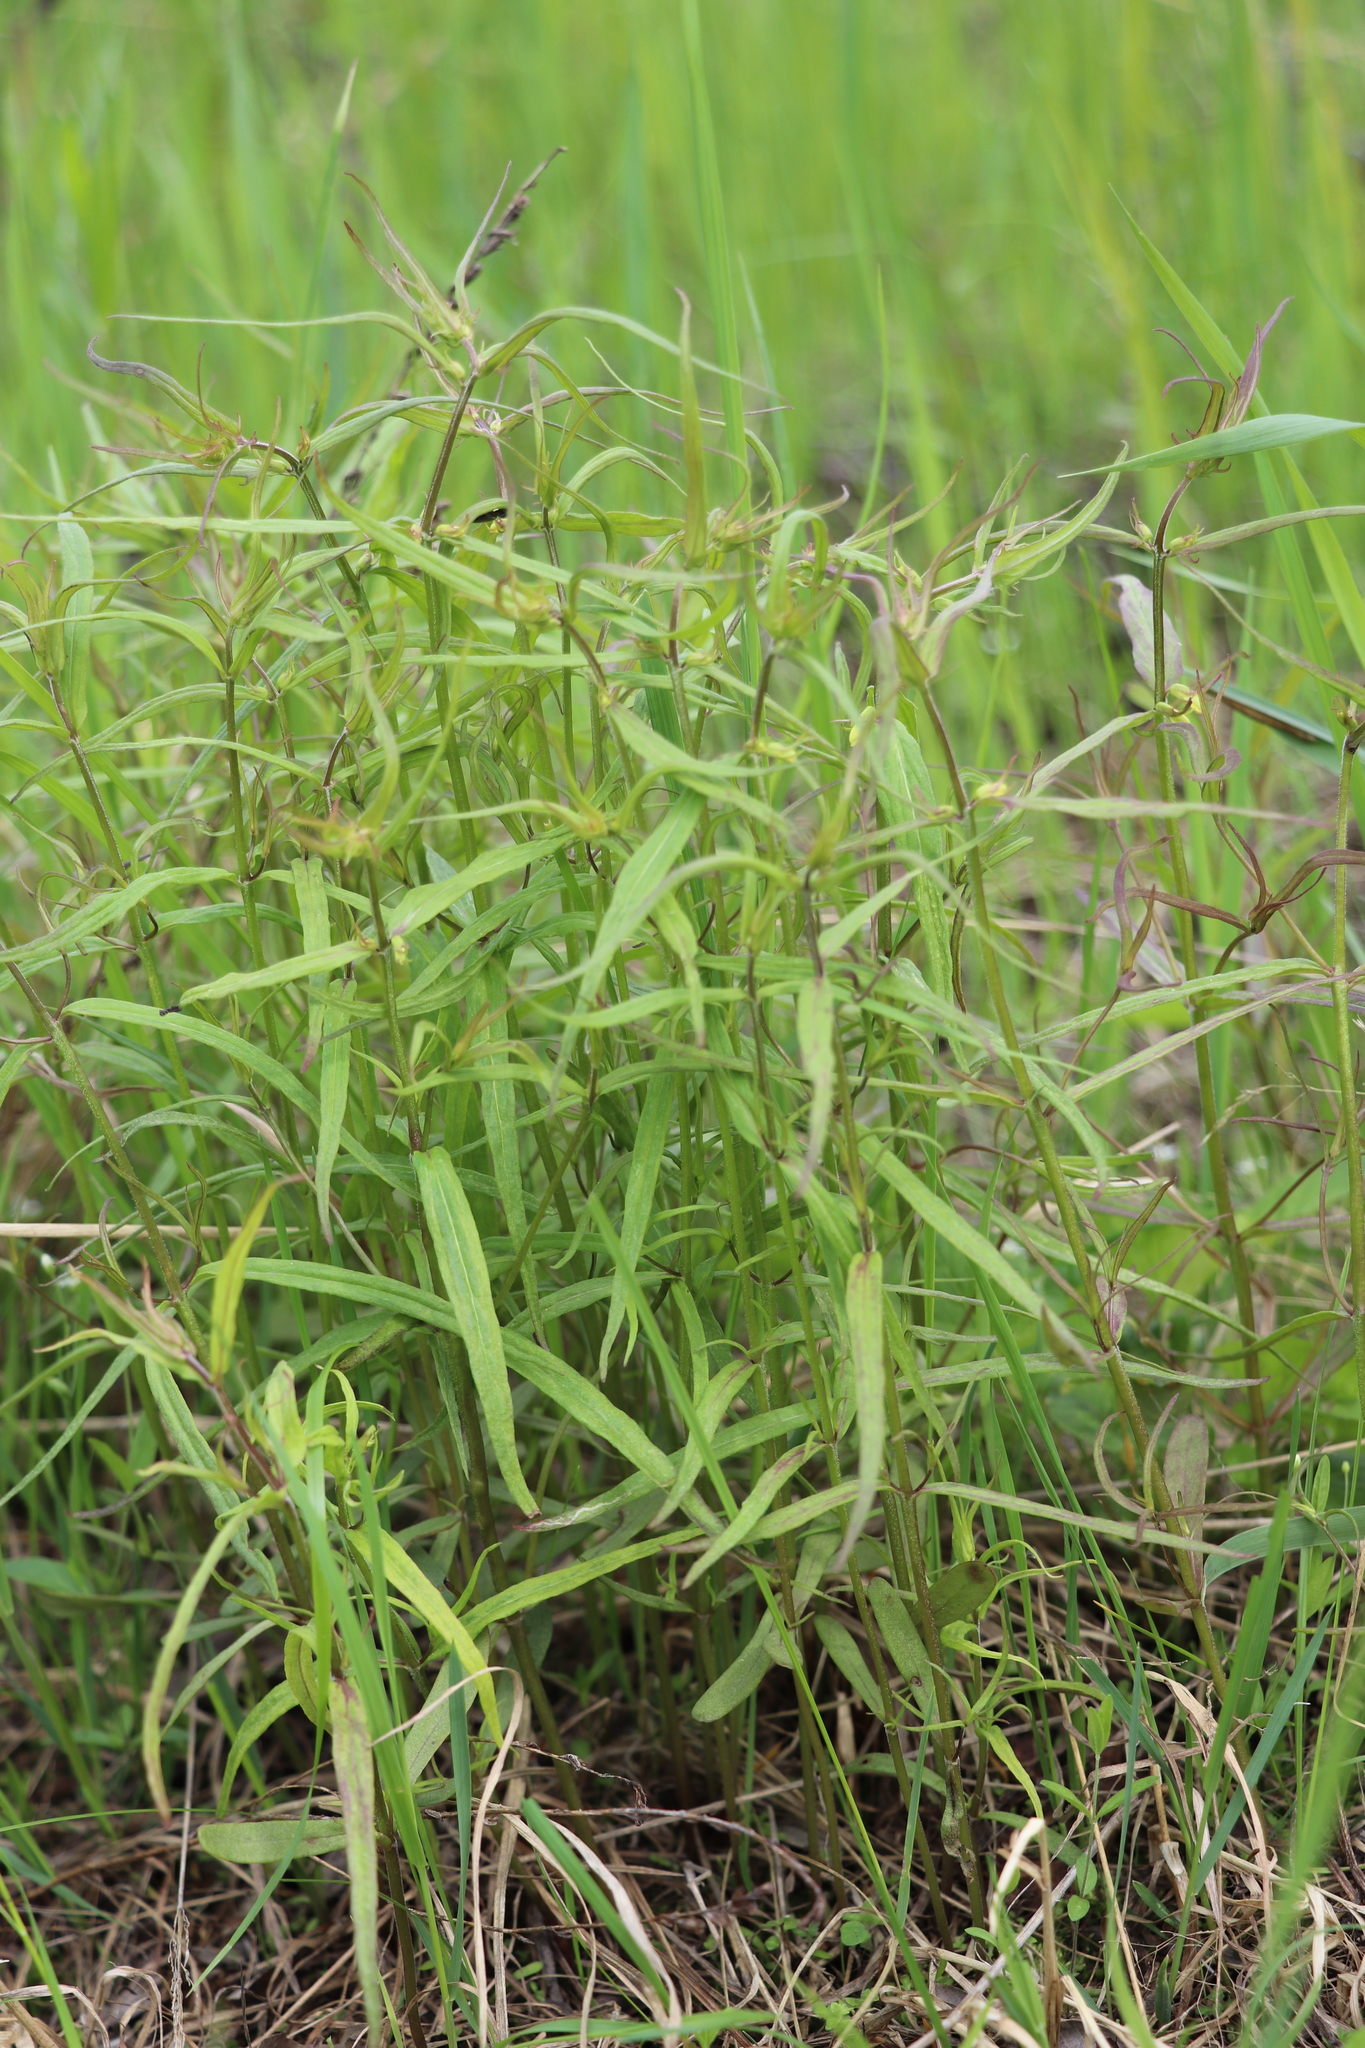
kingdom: Plantae
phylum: Tracheophyta
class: Magnoliopsida
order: Lamiales
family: Orobanchaceae
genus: Melampyrum
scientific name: Melampyrum pratense
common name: Common cow-wheat
